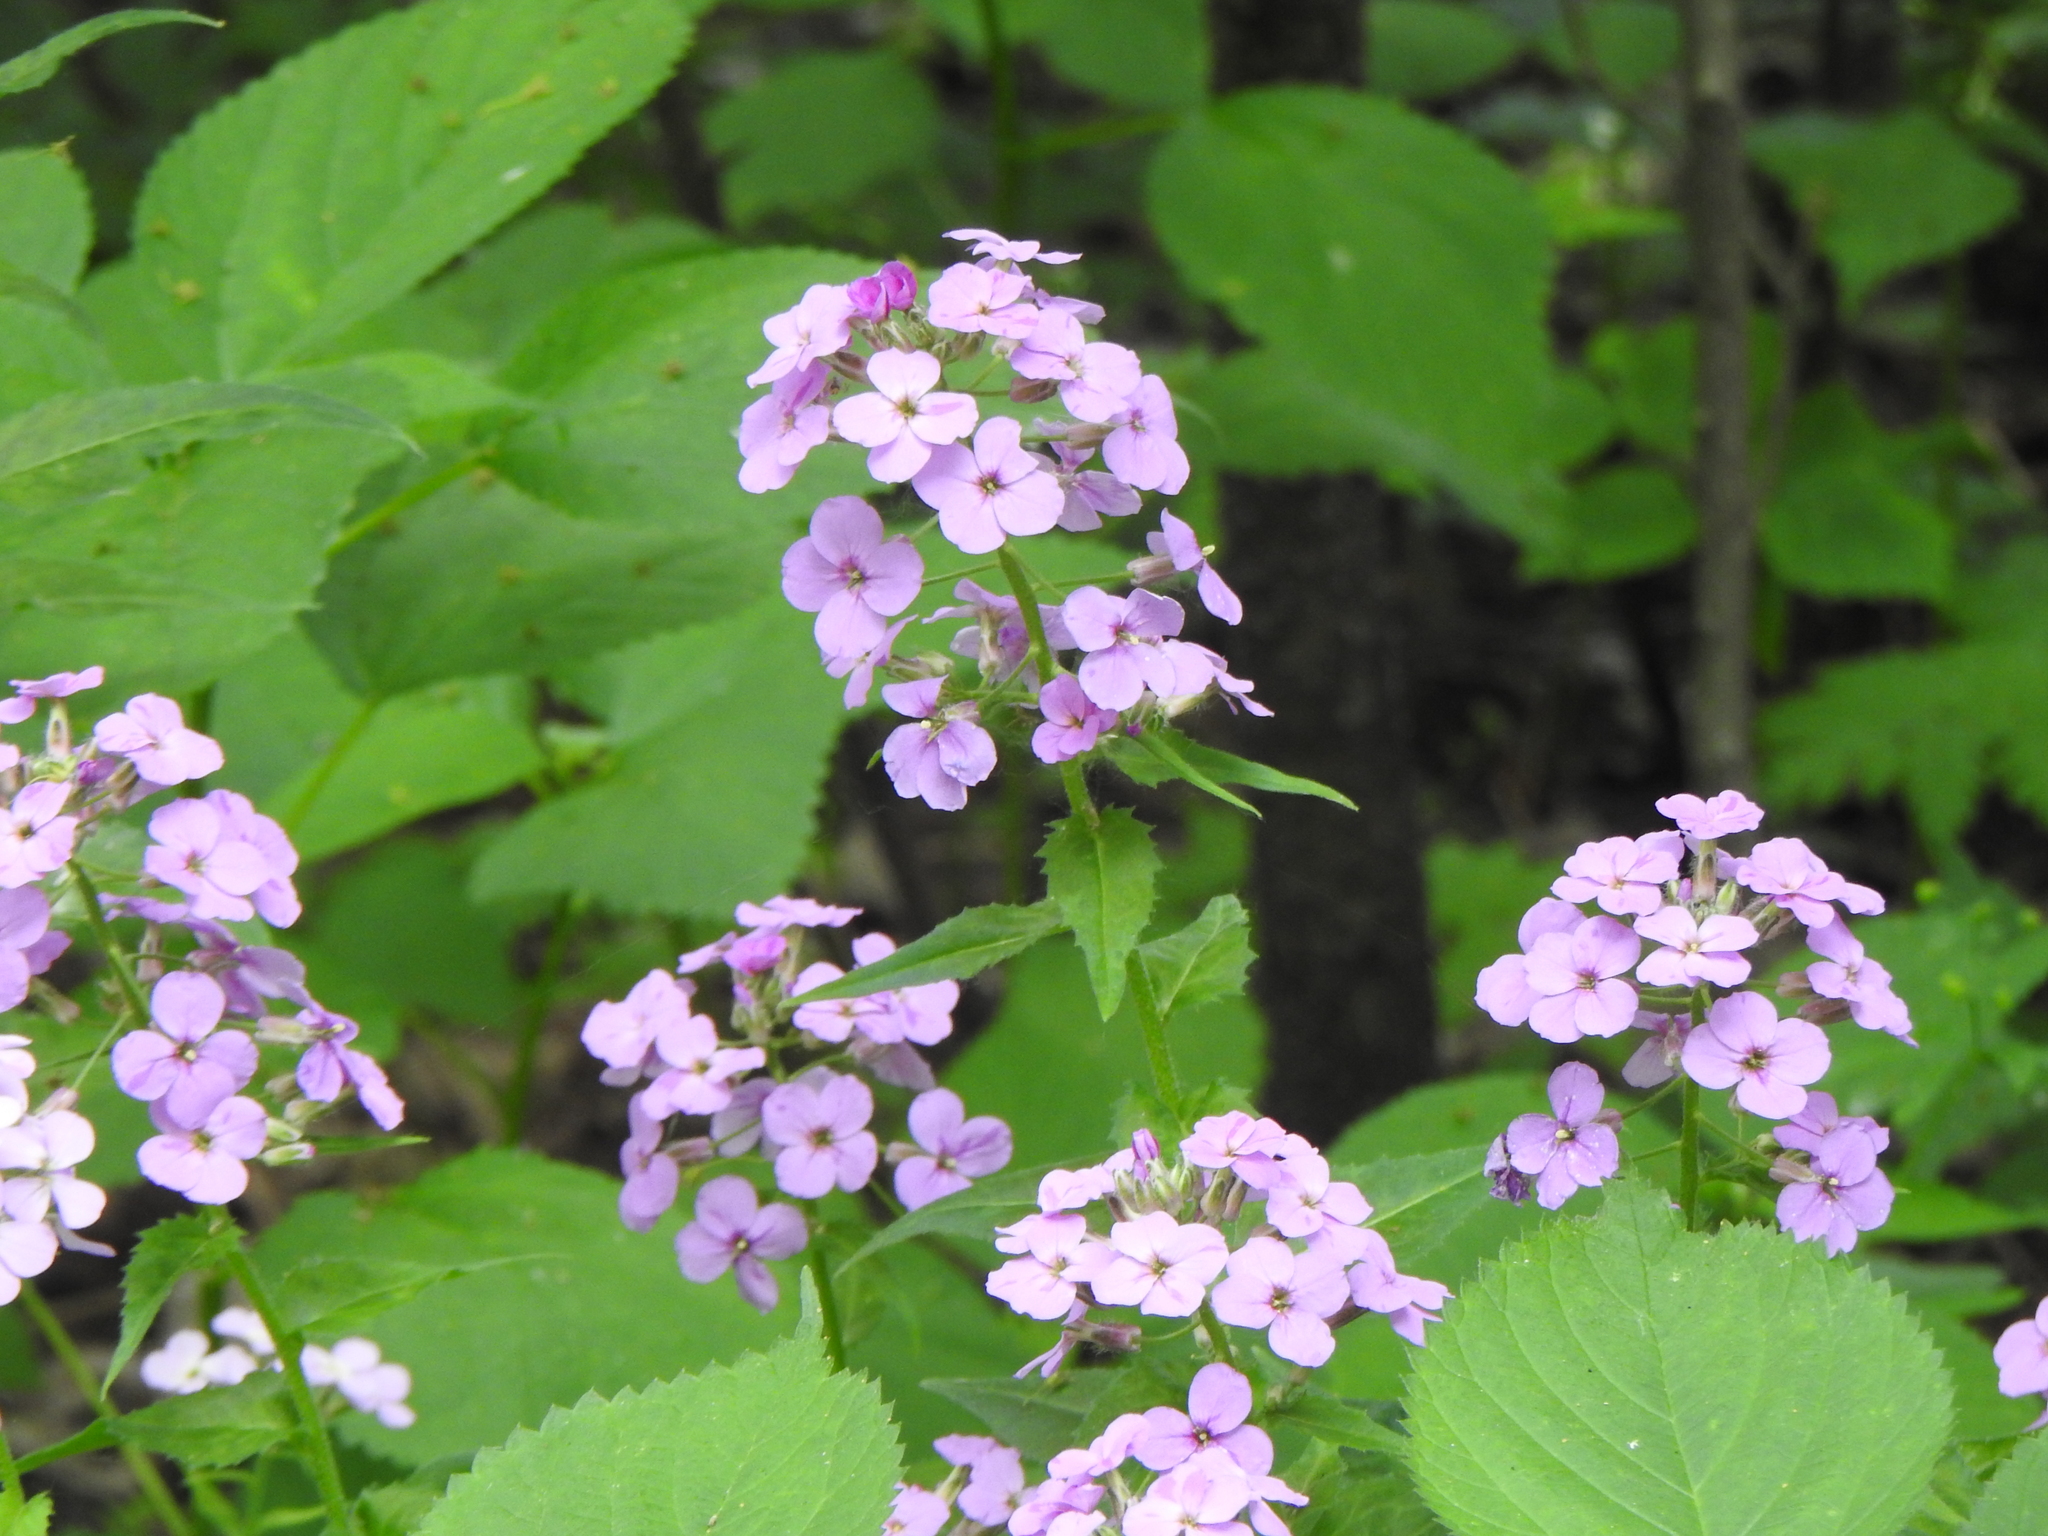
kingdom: Plantae
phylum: Tracheophyta
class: Magnoliopsida
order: Brassicales
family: Brassicaceae
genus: Hesperis
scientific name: Hesperis matronalis
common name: Dame's-violet
